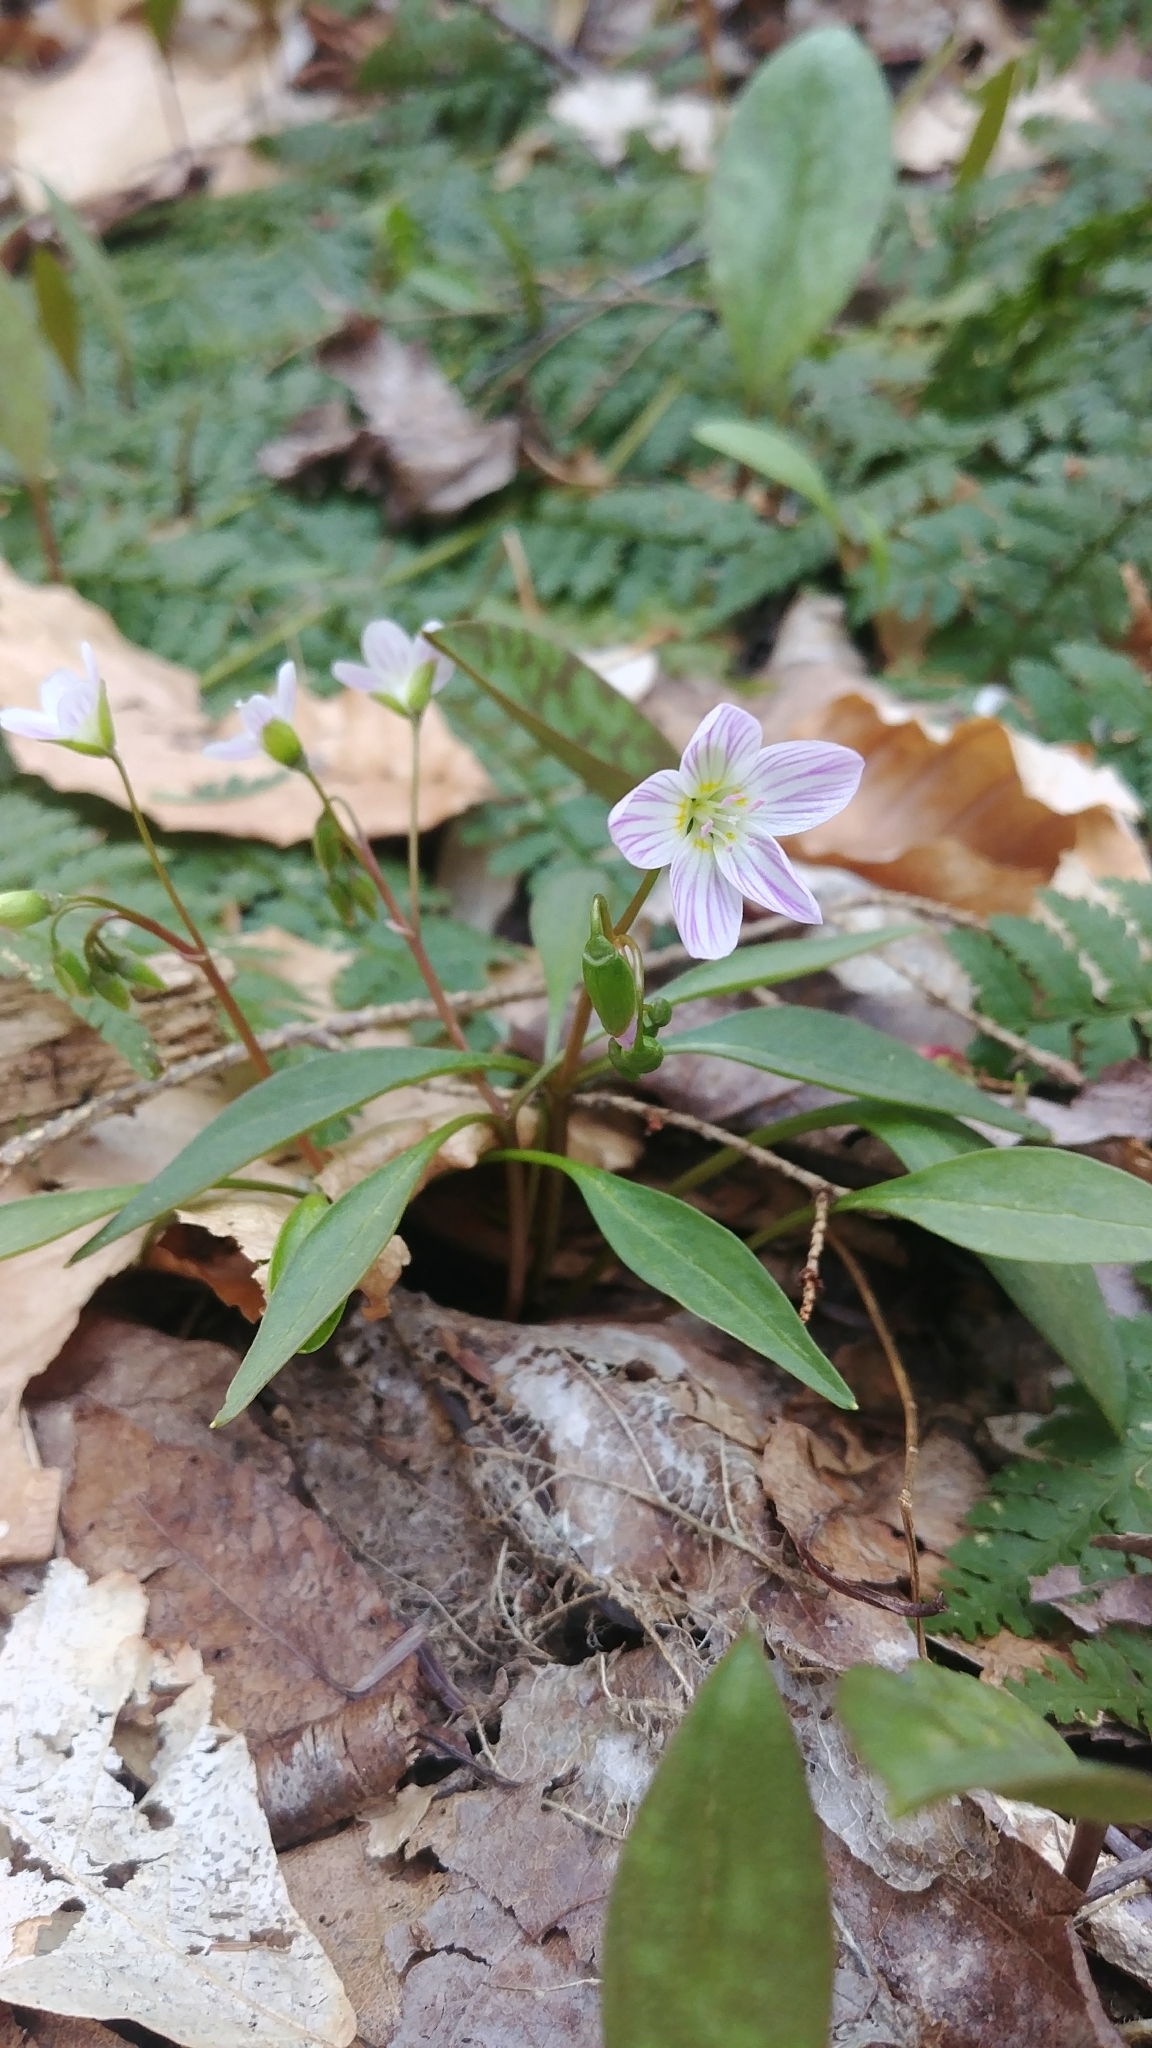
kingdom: Plantae
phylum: Tracheophyta
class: Magnoliopsida
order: Caryophyllales
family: Montiaceae
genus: Claytonia
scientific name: Claytonia caroliniana
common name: Carolina spring beauty
